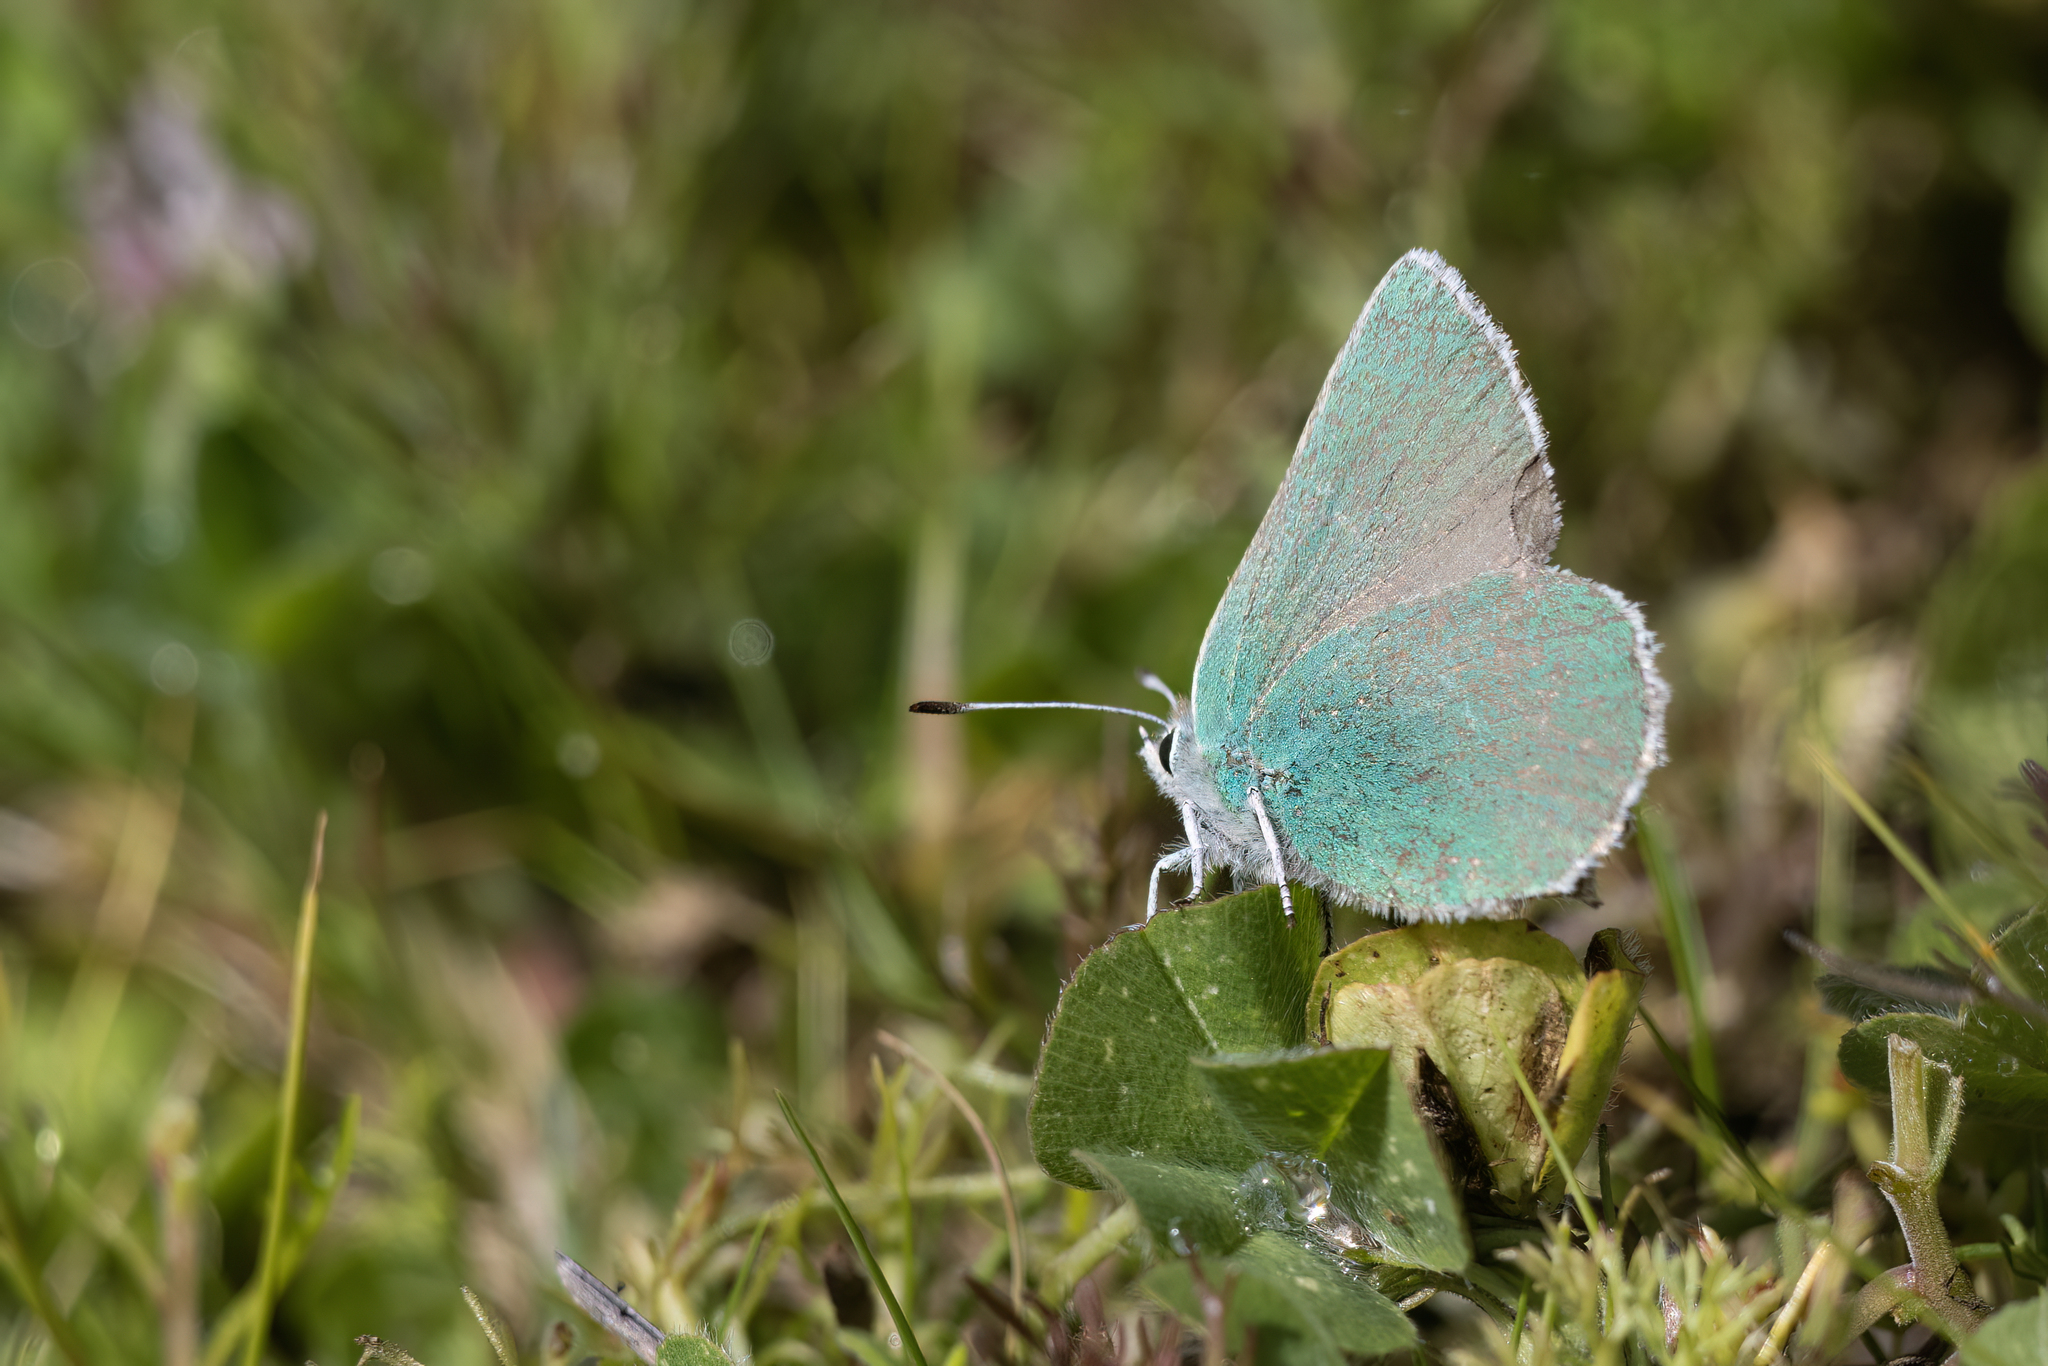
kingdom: Animalia
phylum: Arthropoda
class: Insecta
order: Lepidoptera
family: Lycaenidae
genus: Callophrys
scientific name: Callophrys viridis
